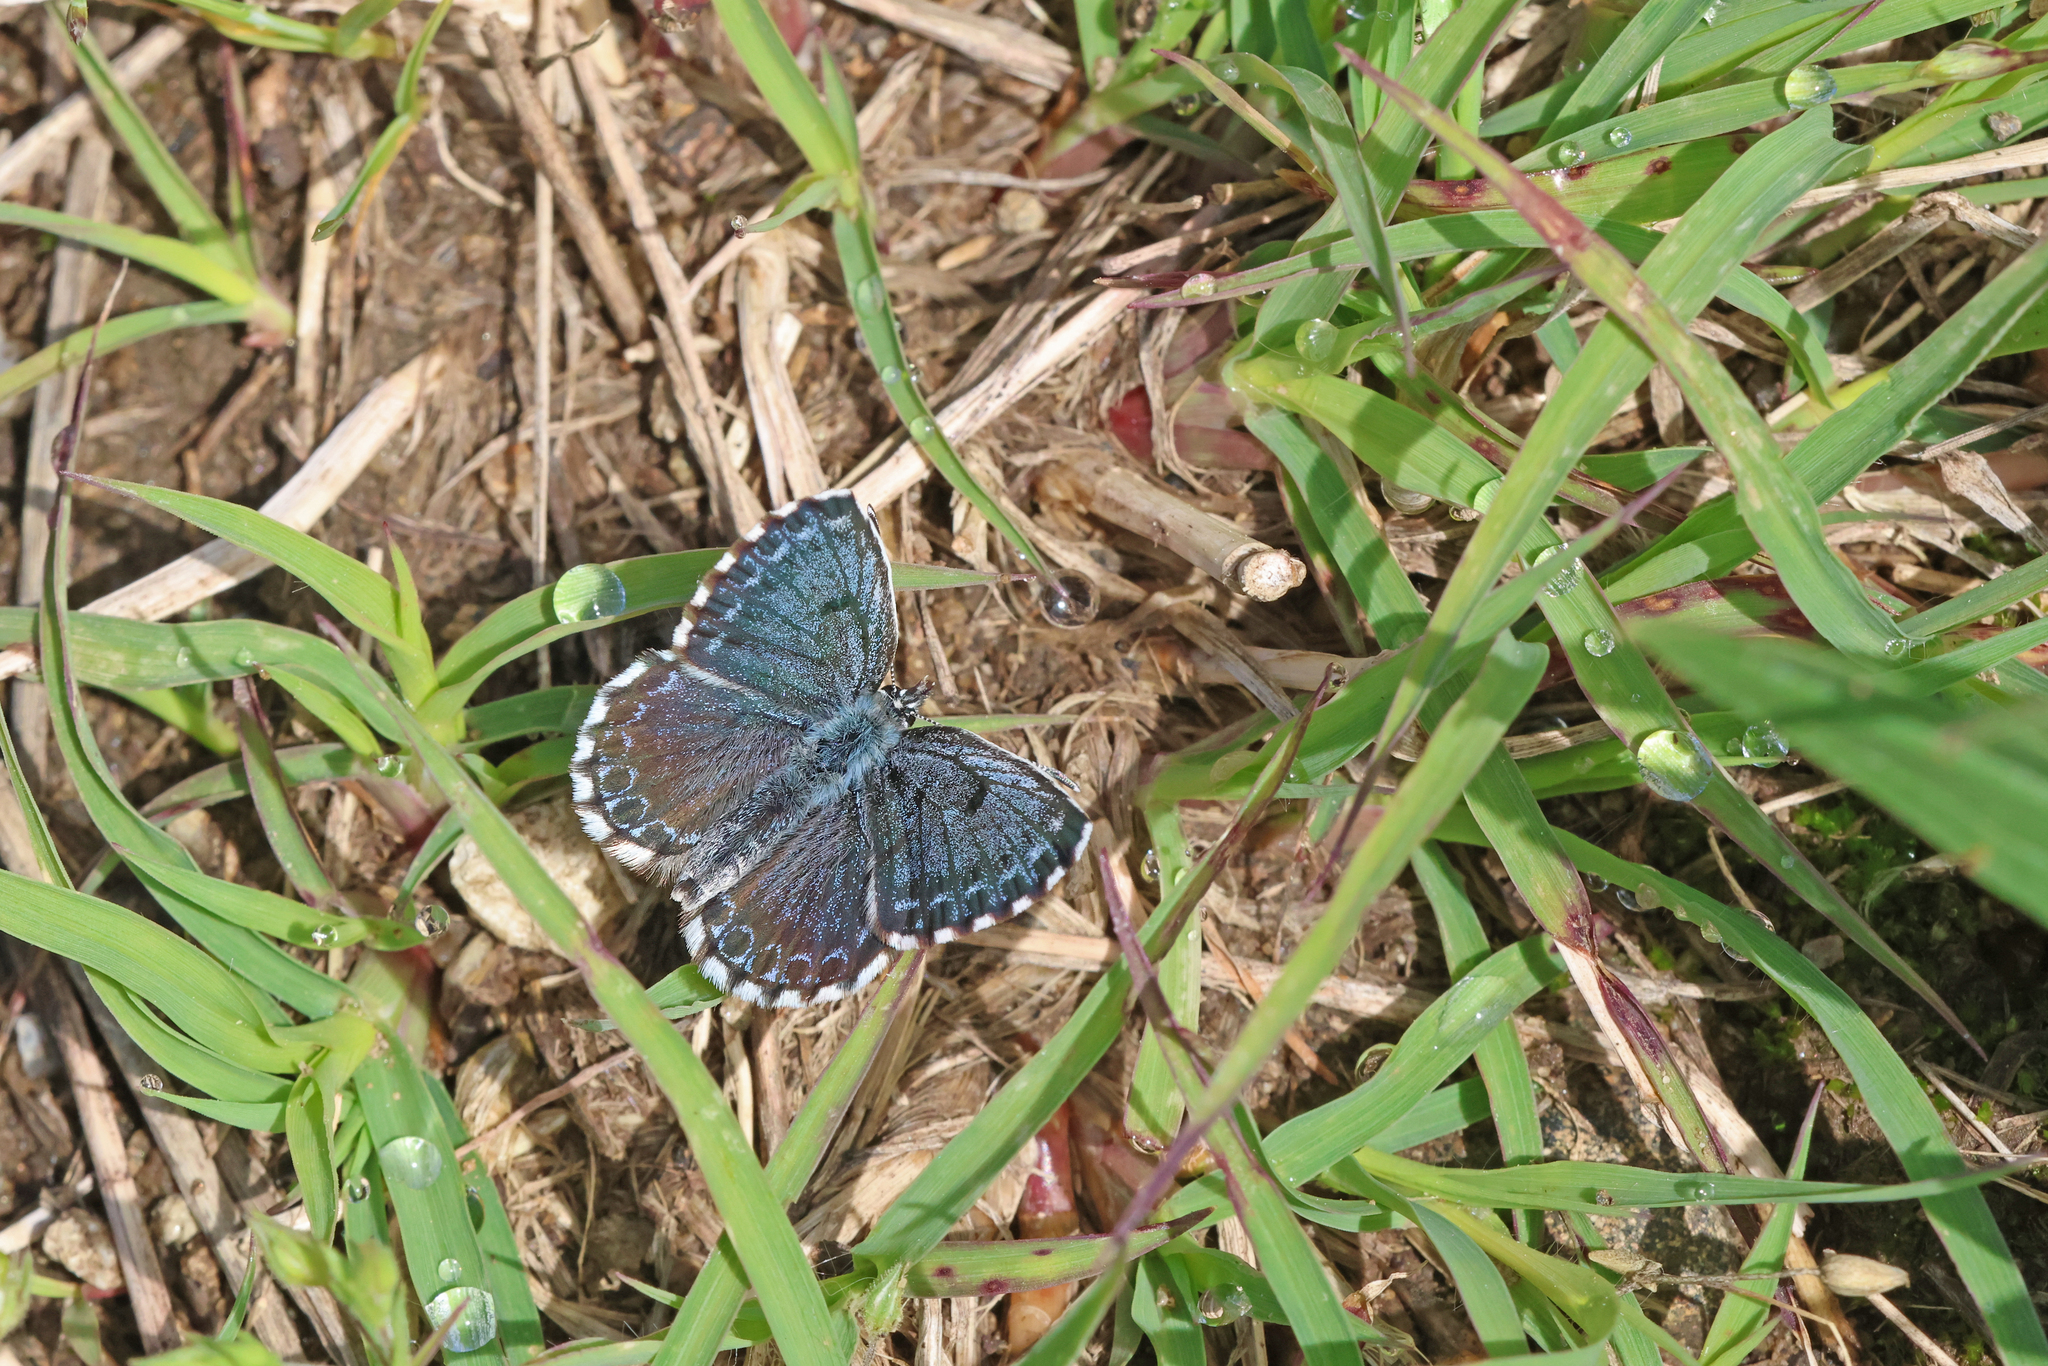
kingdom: Animalia
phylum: Arthropoda
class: Insecta
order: Lepidoptera
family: Lycaenidae
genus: Scolitantides
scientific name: Scolitantides orion
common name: Chequered blue
